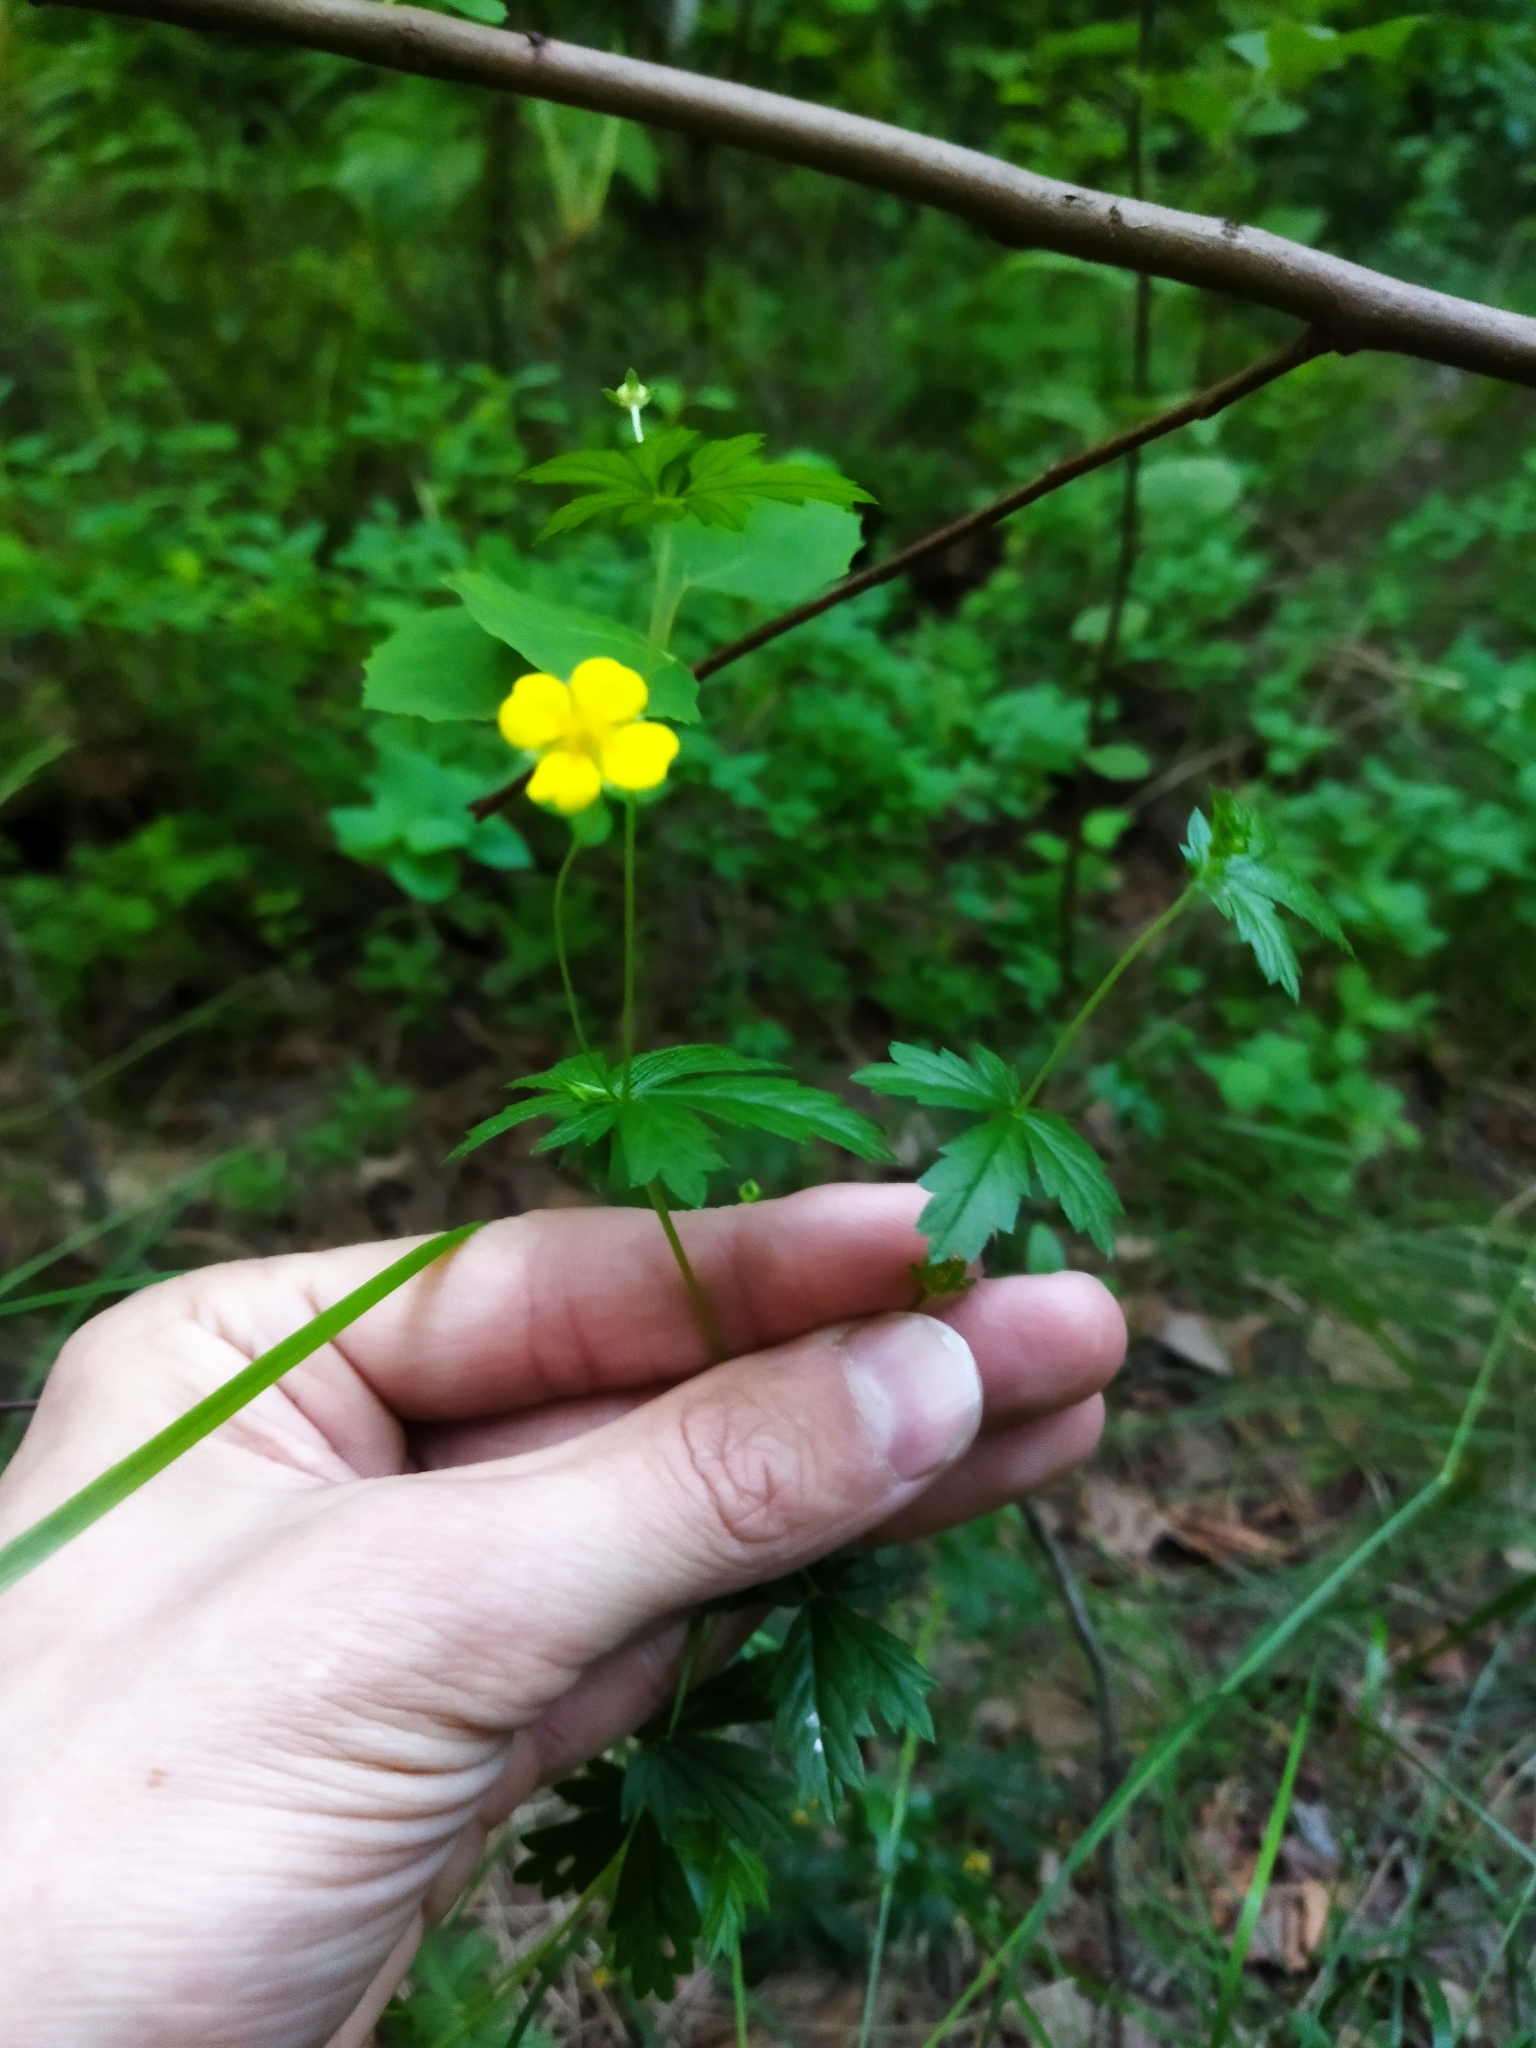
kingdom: Plantae
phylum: Tracheophyta
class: Magnoliopsida
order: Rosales
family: Rosaceae
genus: Potentilla
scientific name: Potentilla erecta
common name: Tormentil
